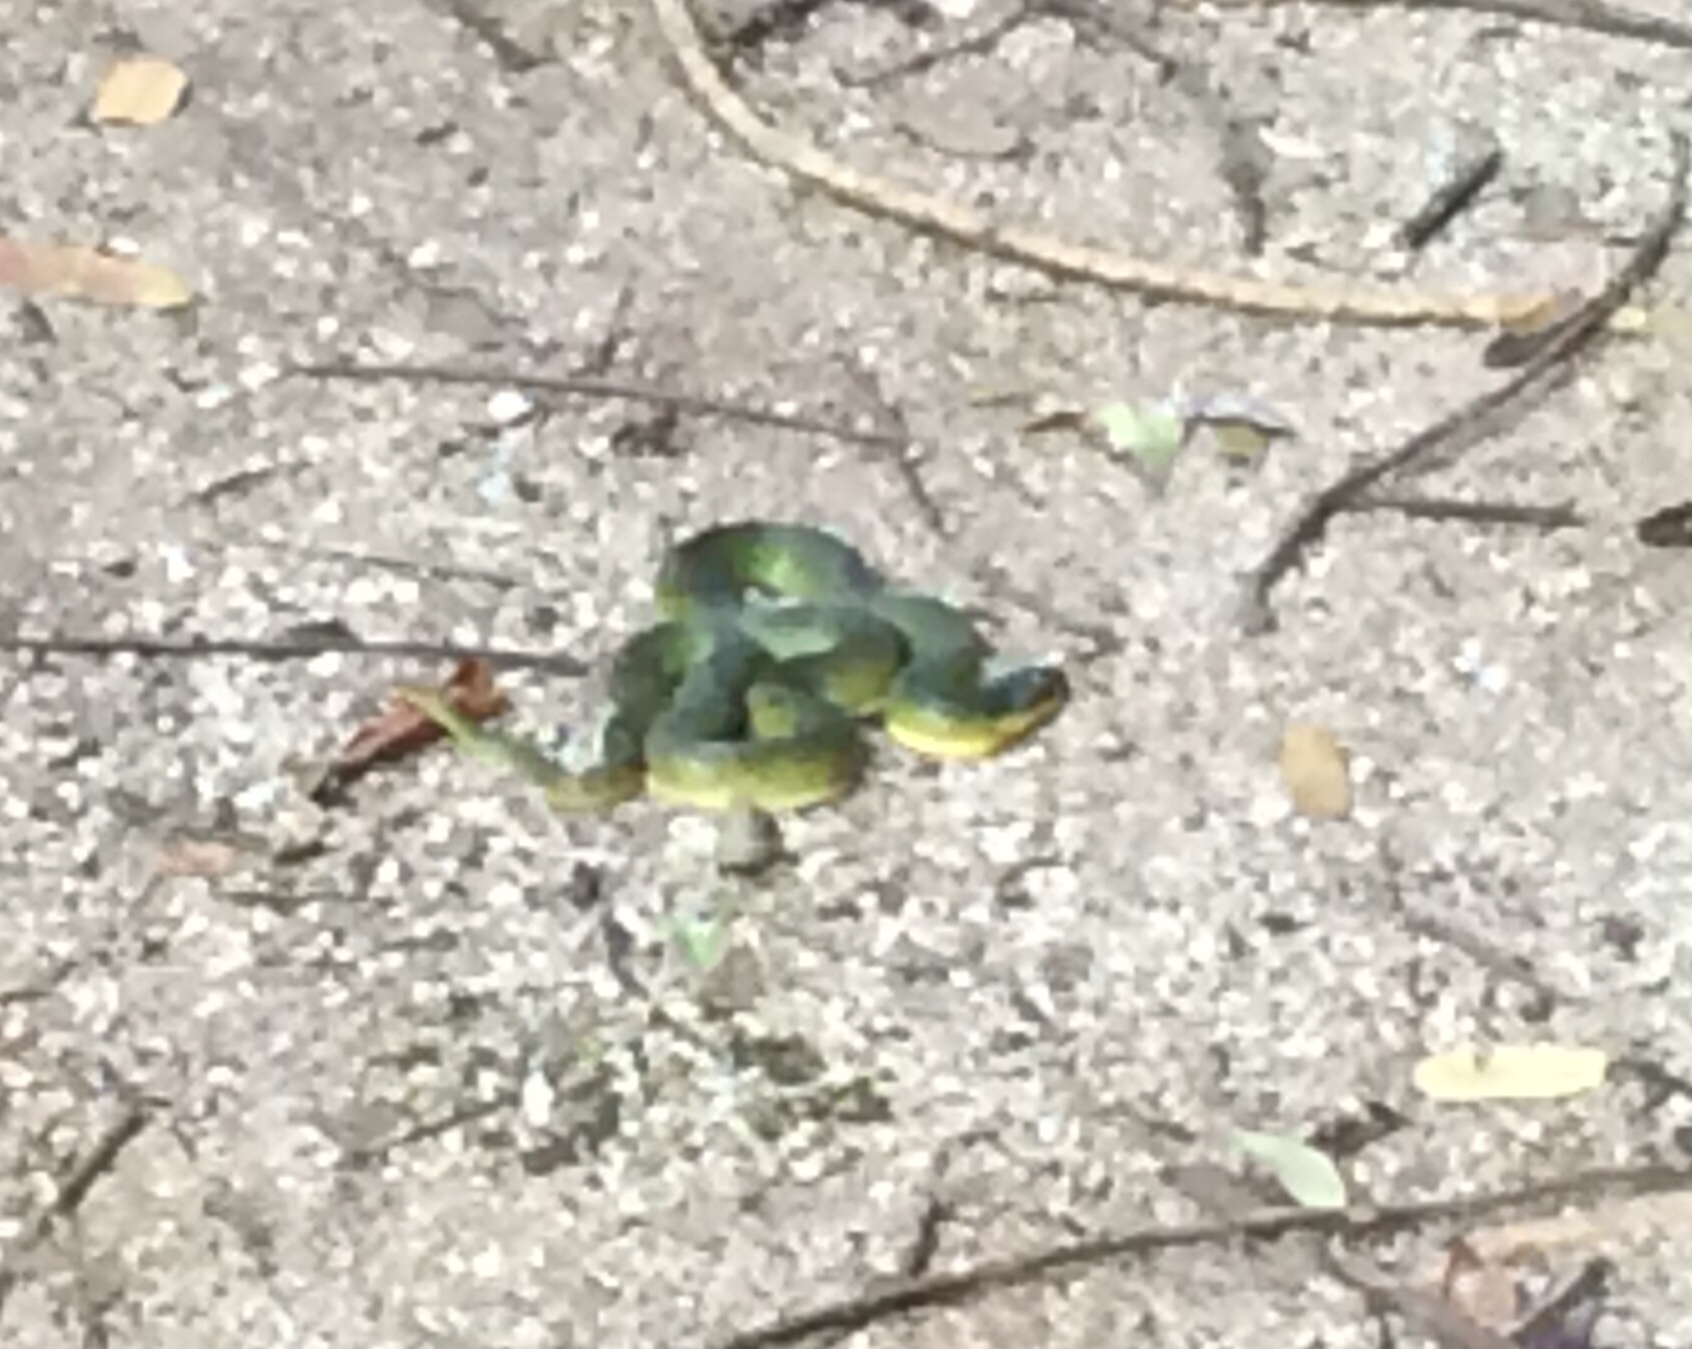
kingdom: Animalia
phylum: Chordata
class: Squamata
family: Colubridae
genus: Erythrolamprus
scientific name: Erythrolamprus typhlus
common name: Blind ground snake
